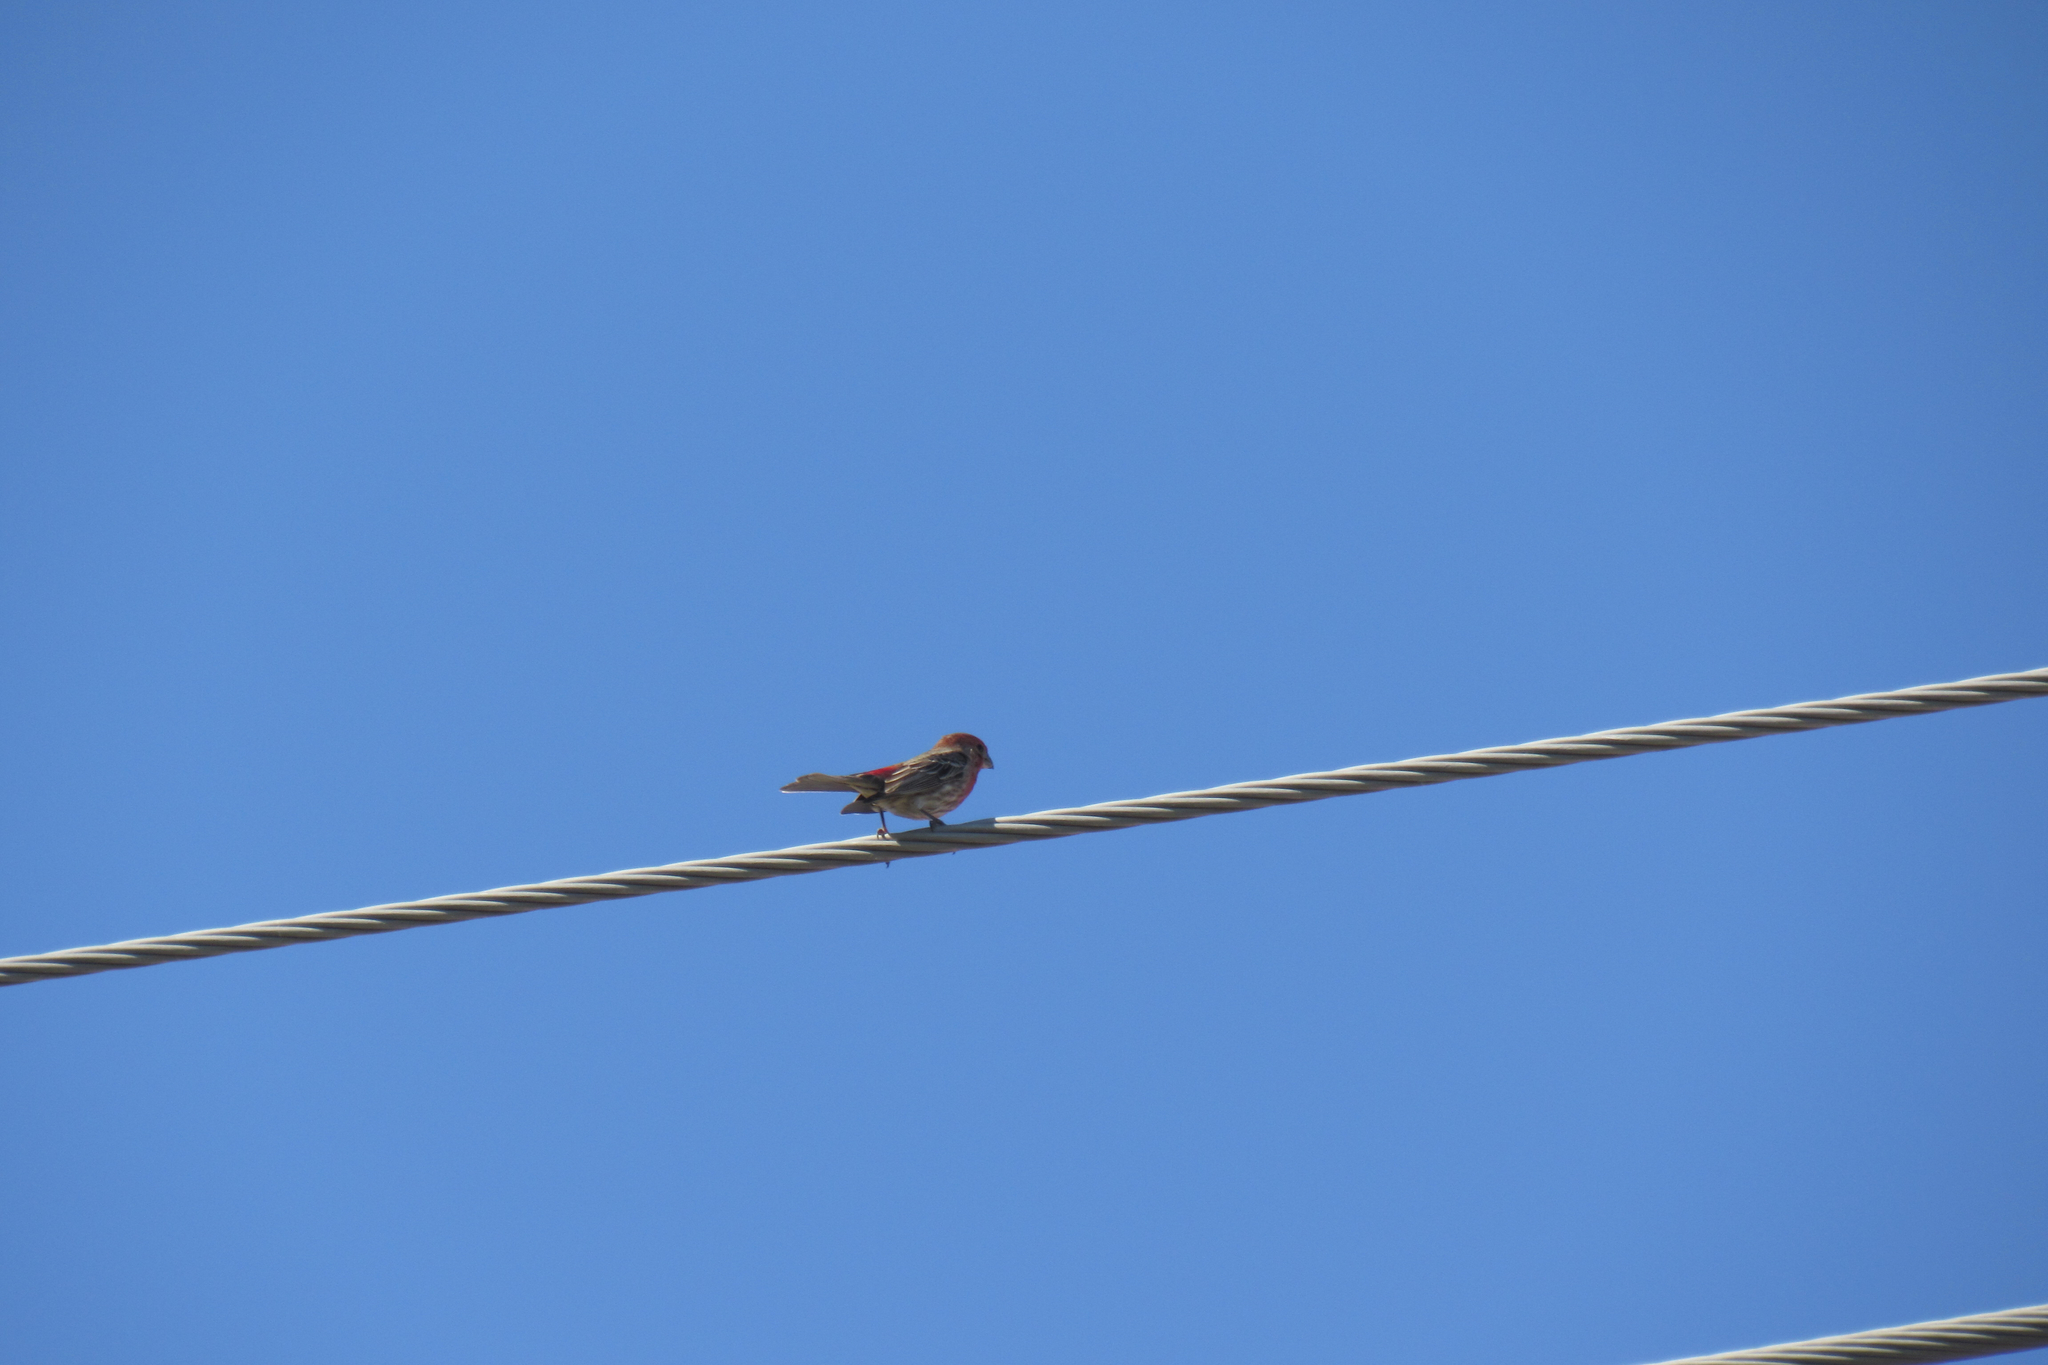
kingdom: Animalia
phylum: Chordata
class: Aves
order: Passeriformes
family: Fringillidae
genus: Haemorhous
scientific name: Haemorhous mexicanus
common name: House finch
